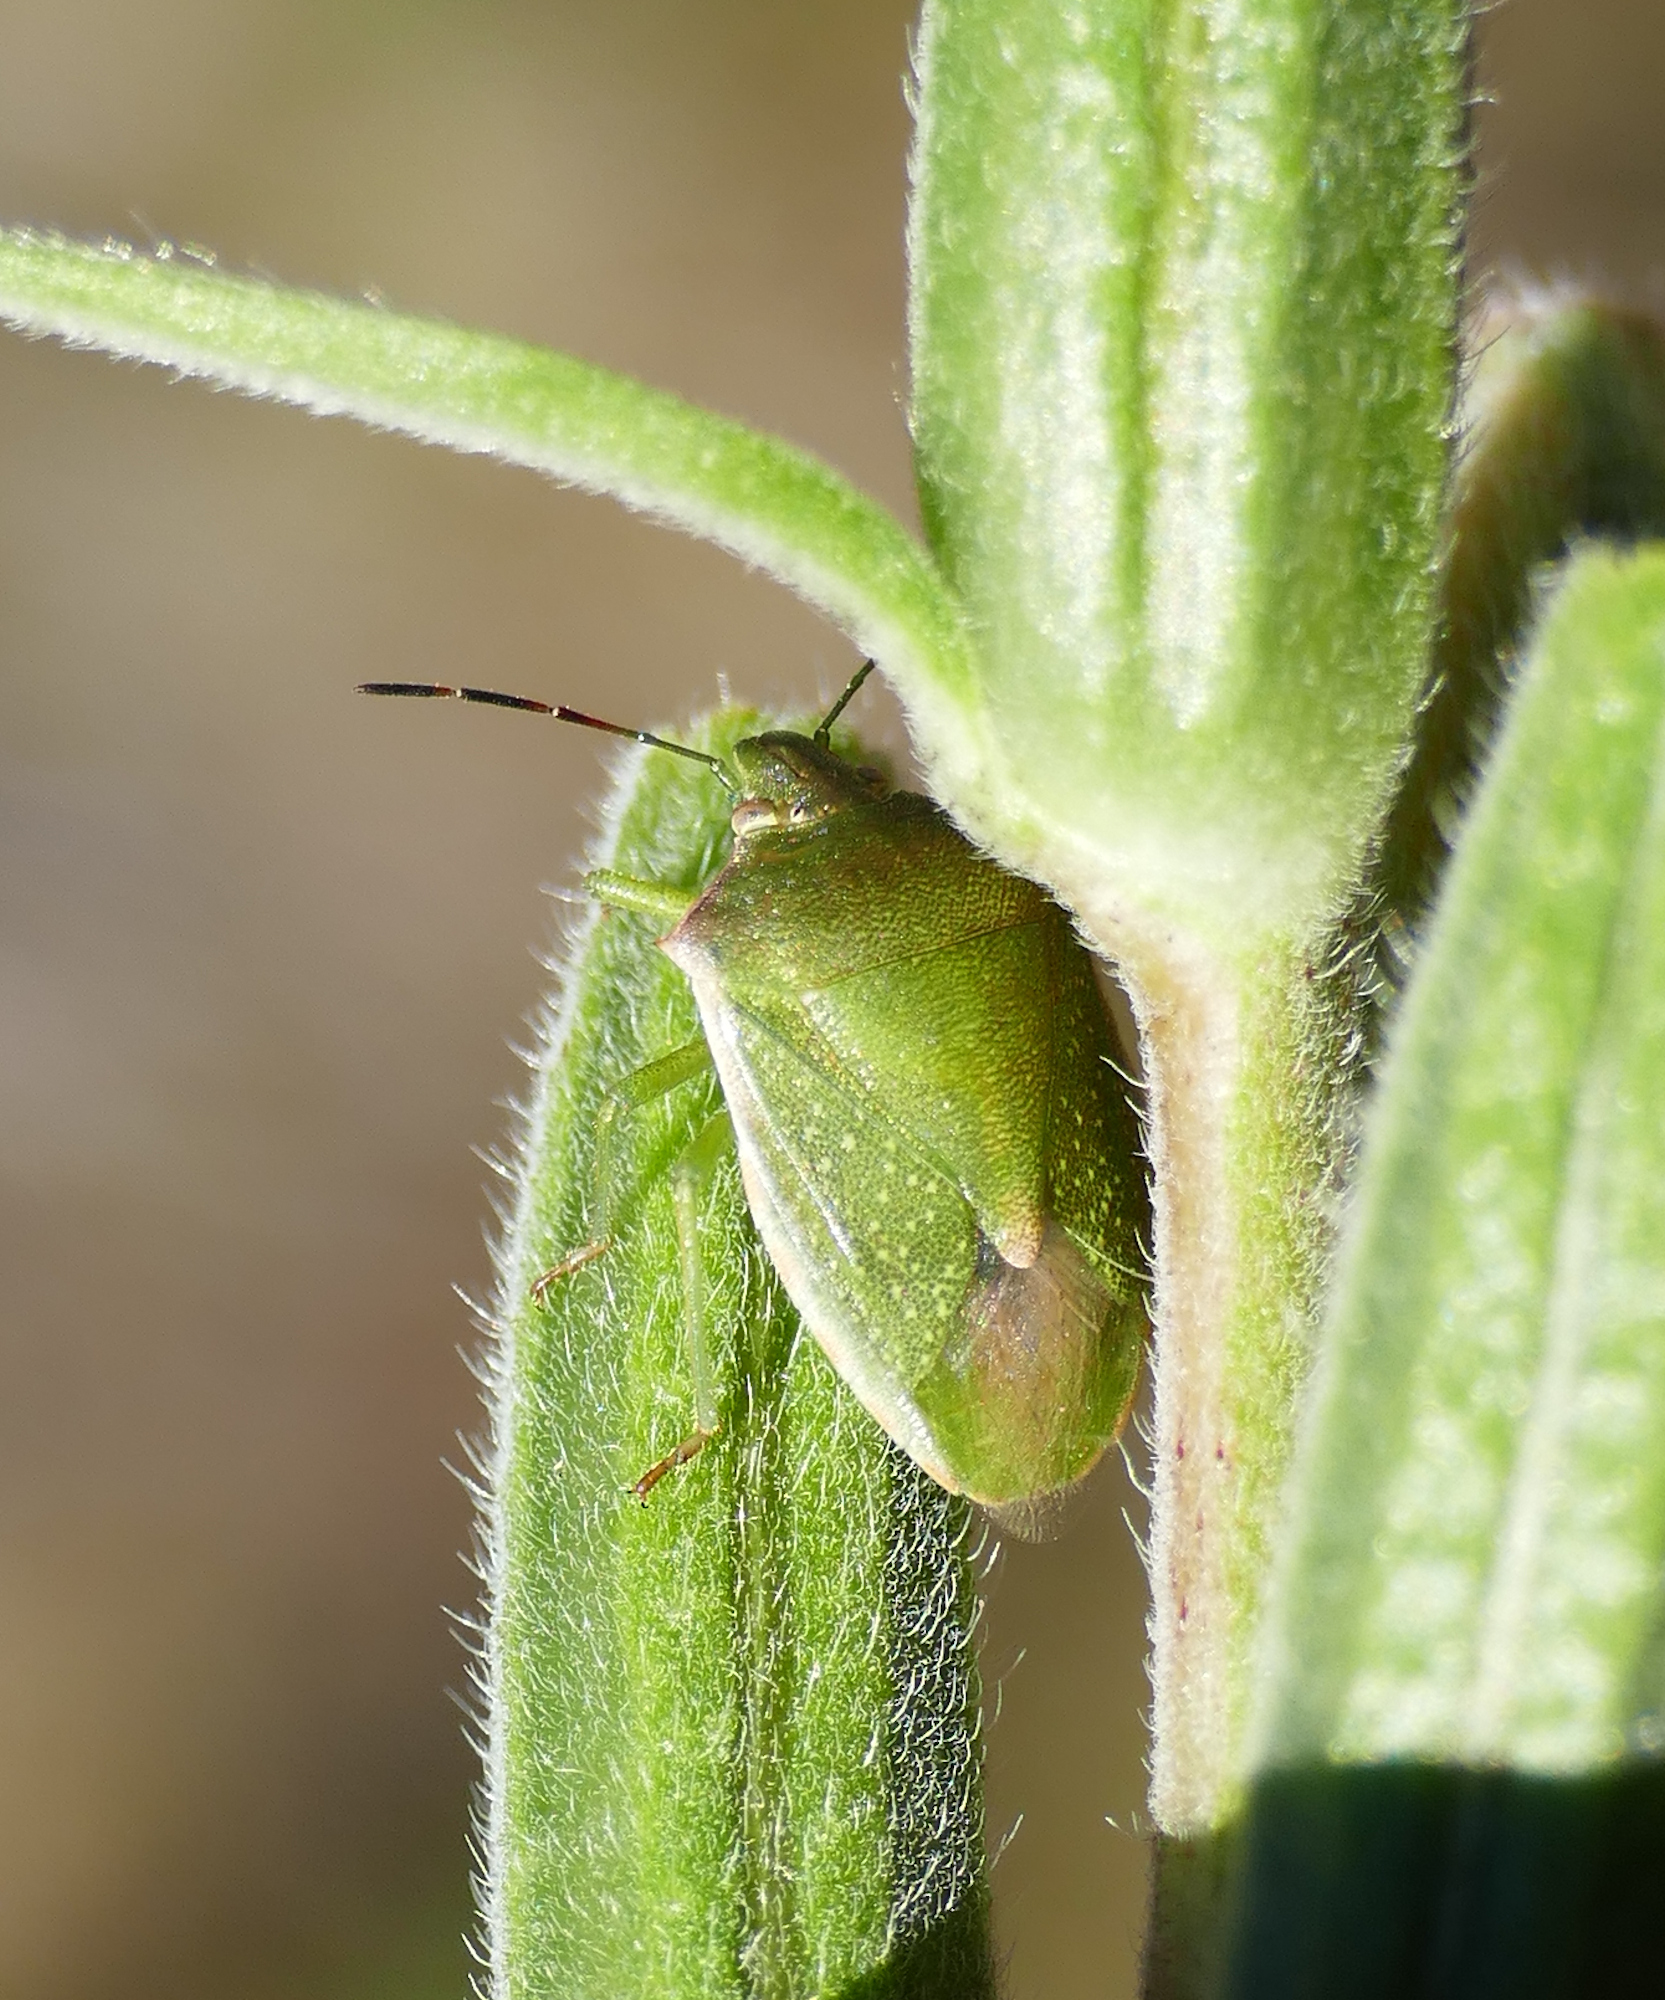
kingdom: Animalia
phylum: Arthropoda
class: Insecta
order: Hemiptera
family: Pentatomidae
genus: Thyanta
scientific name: Thyanta custator
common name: Stink bug
